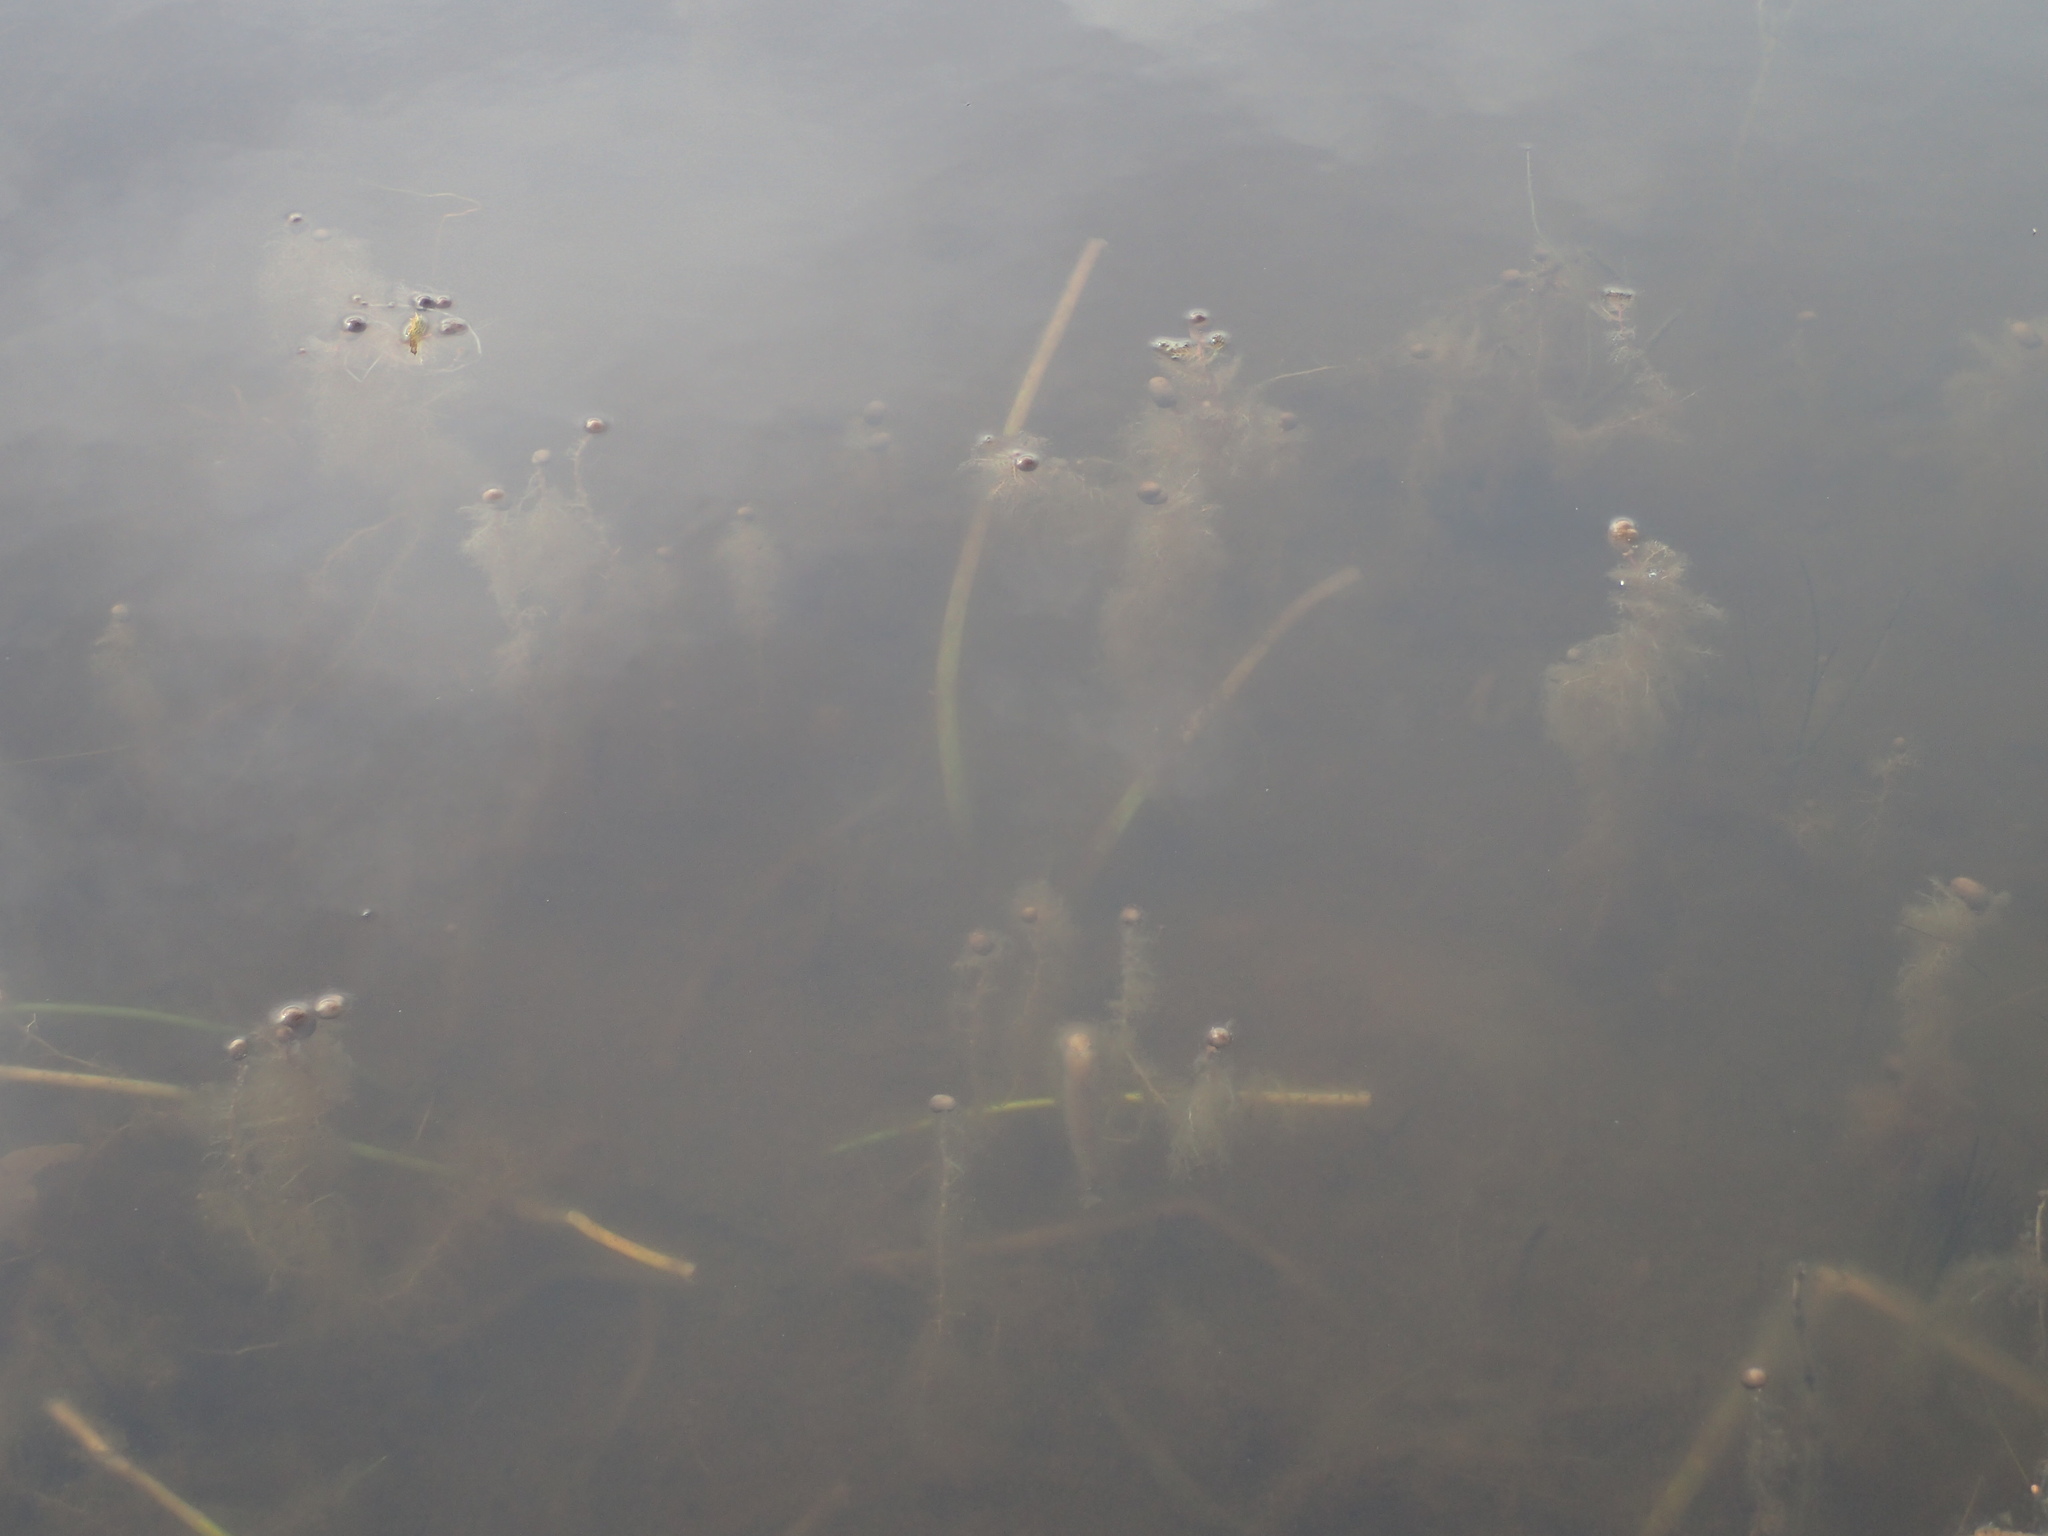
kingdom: Plantae
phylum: Tracheophyta
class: Magnoliopsida
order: Lamiales
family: Lentibulariaceae
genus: Utricularia
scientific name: Utricularia macrorhiza
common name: Common bladderwort
